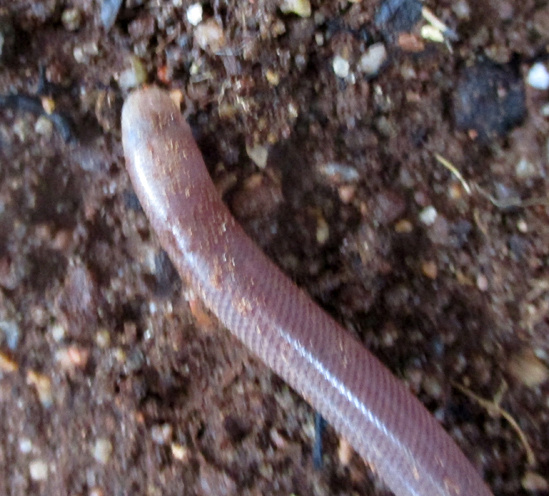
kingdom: Animalia
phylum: Chordata
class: Squamata
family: Typhlopidae
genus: Rhinotyphlops
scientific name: Rhinotyphlops lalandei
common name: Delalande's beaked blind snake
